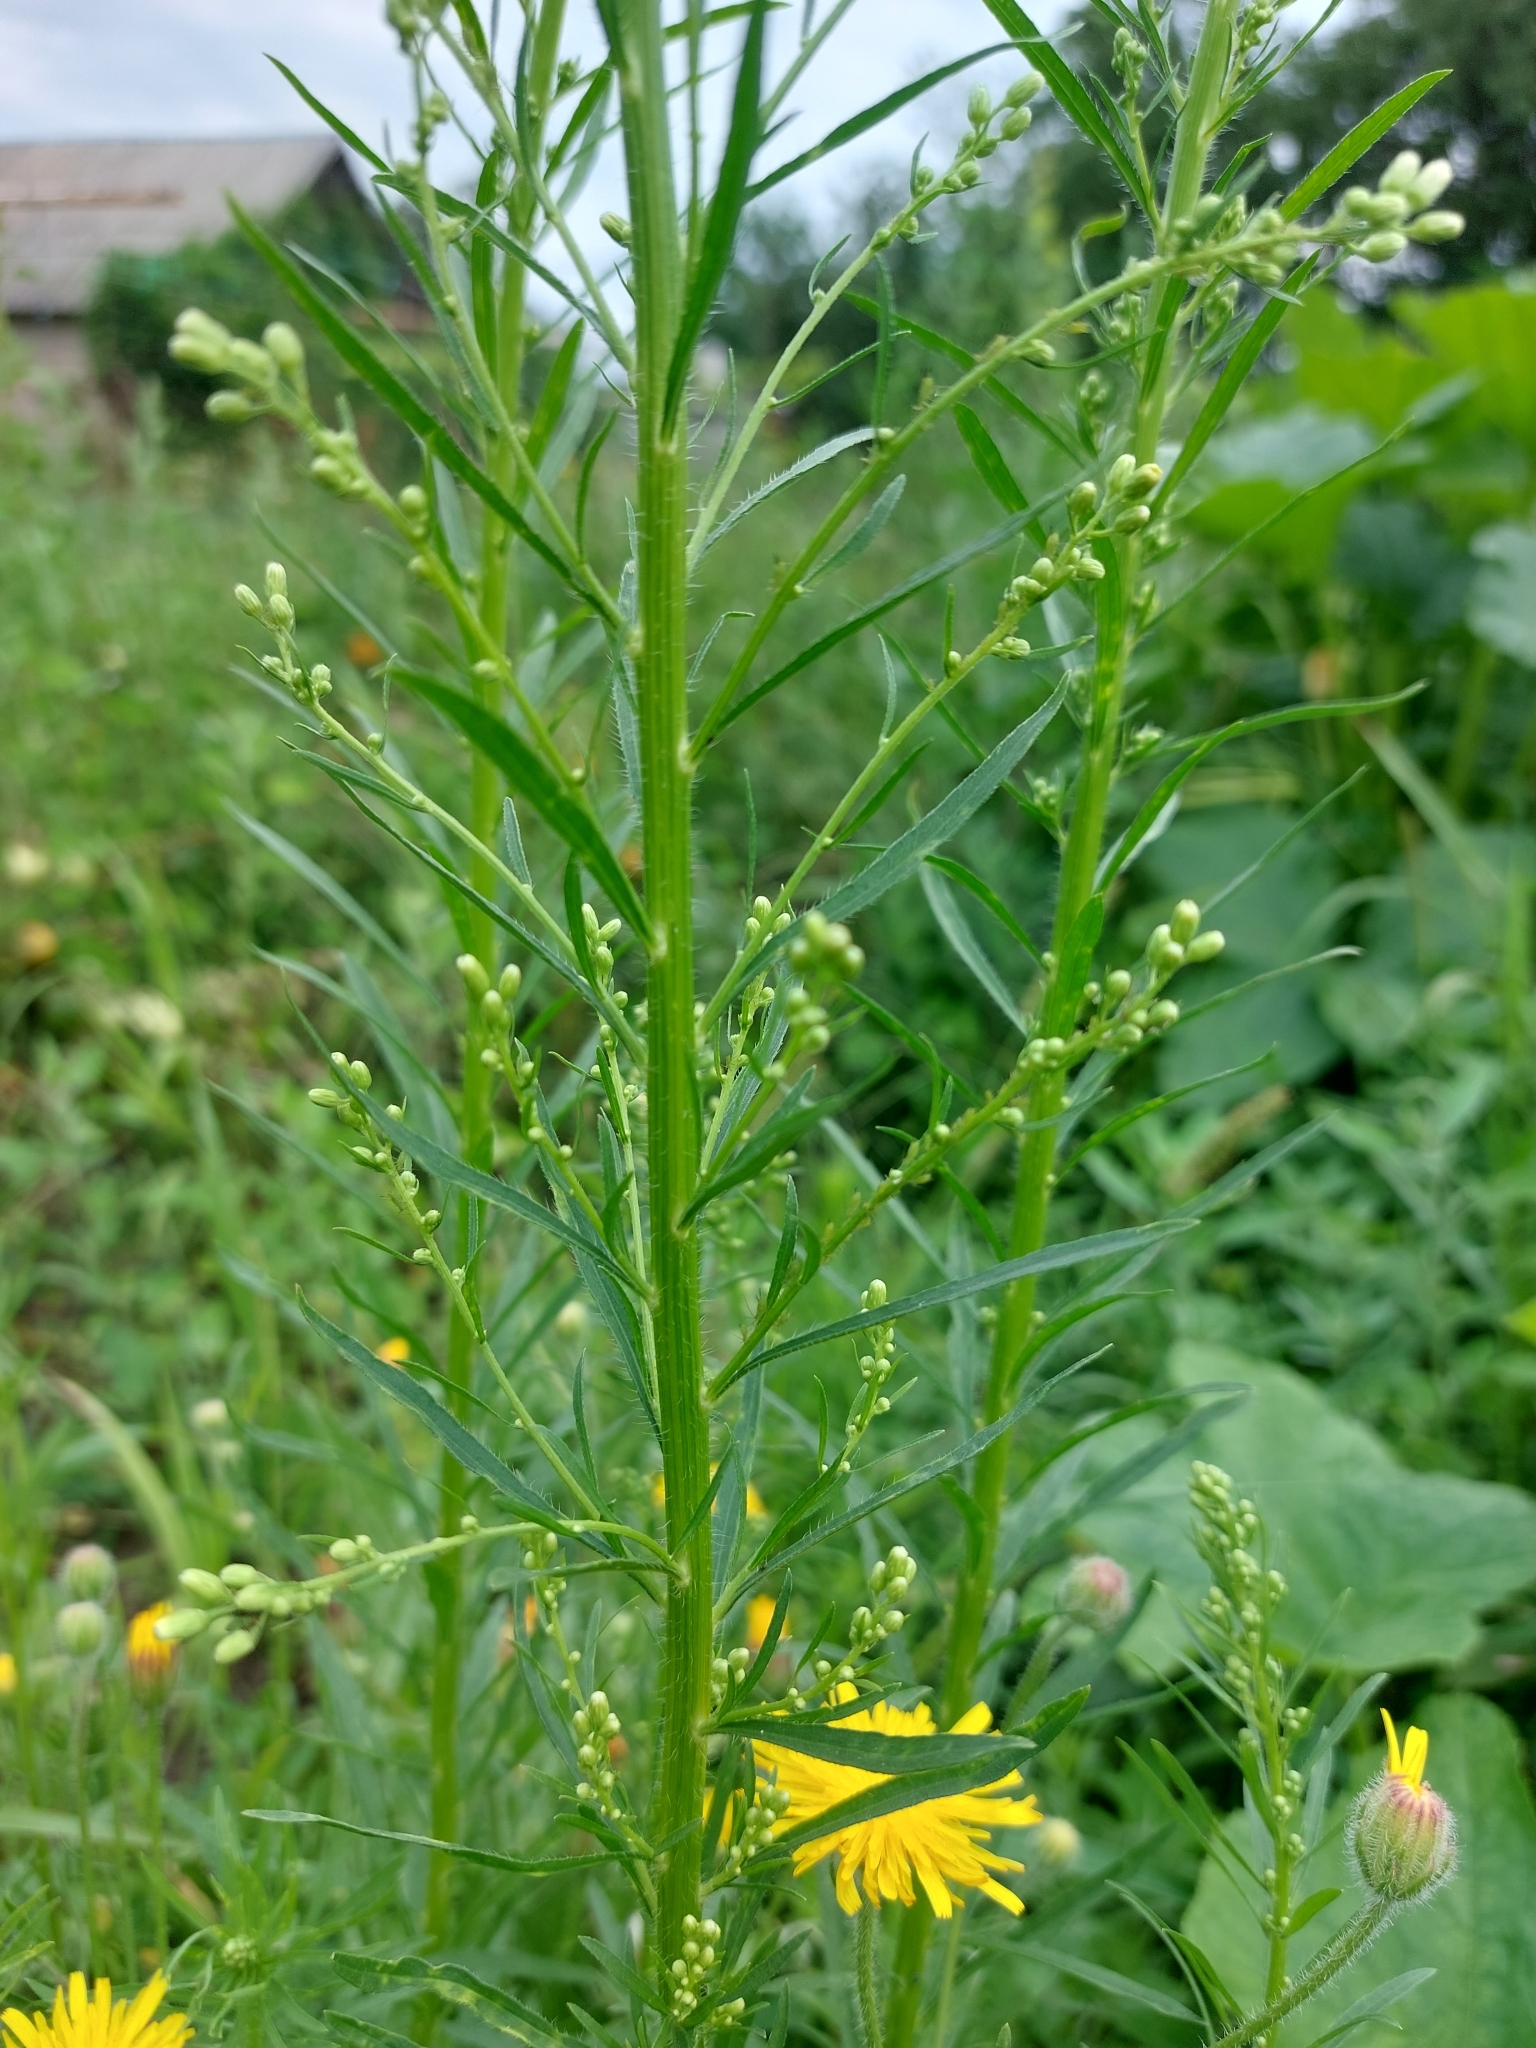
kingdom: Plantae
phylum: Tracheophyta
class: Magnoliopsida
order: Asterales
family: Asteraceae
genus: Erigeron
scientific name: Erigeron canadensis
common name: Canadian fleabane
